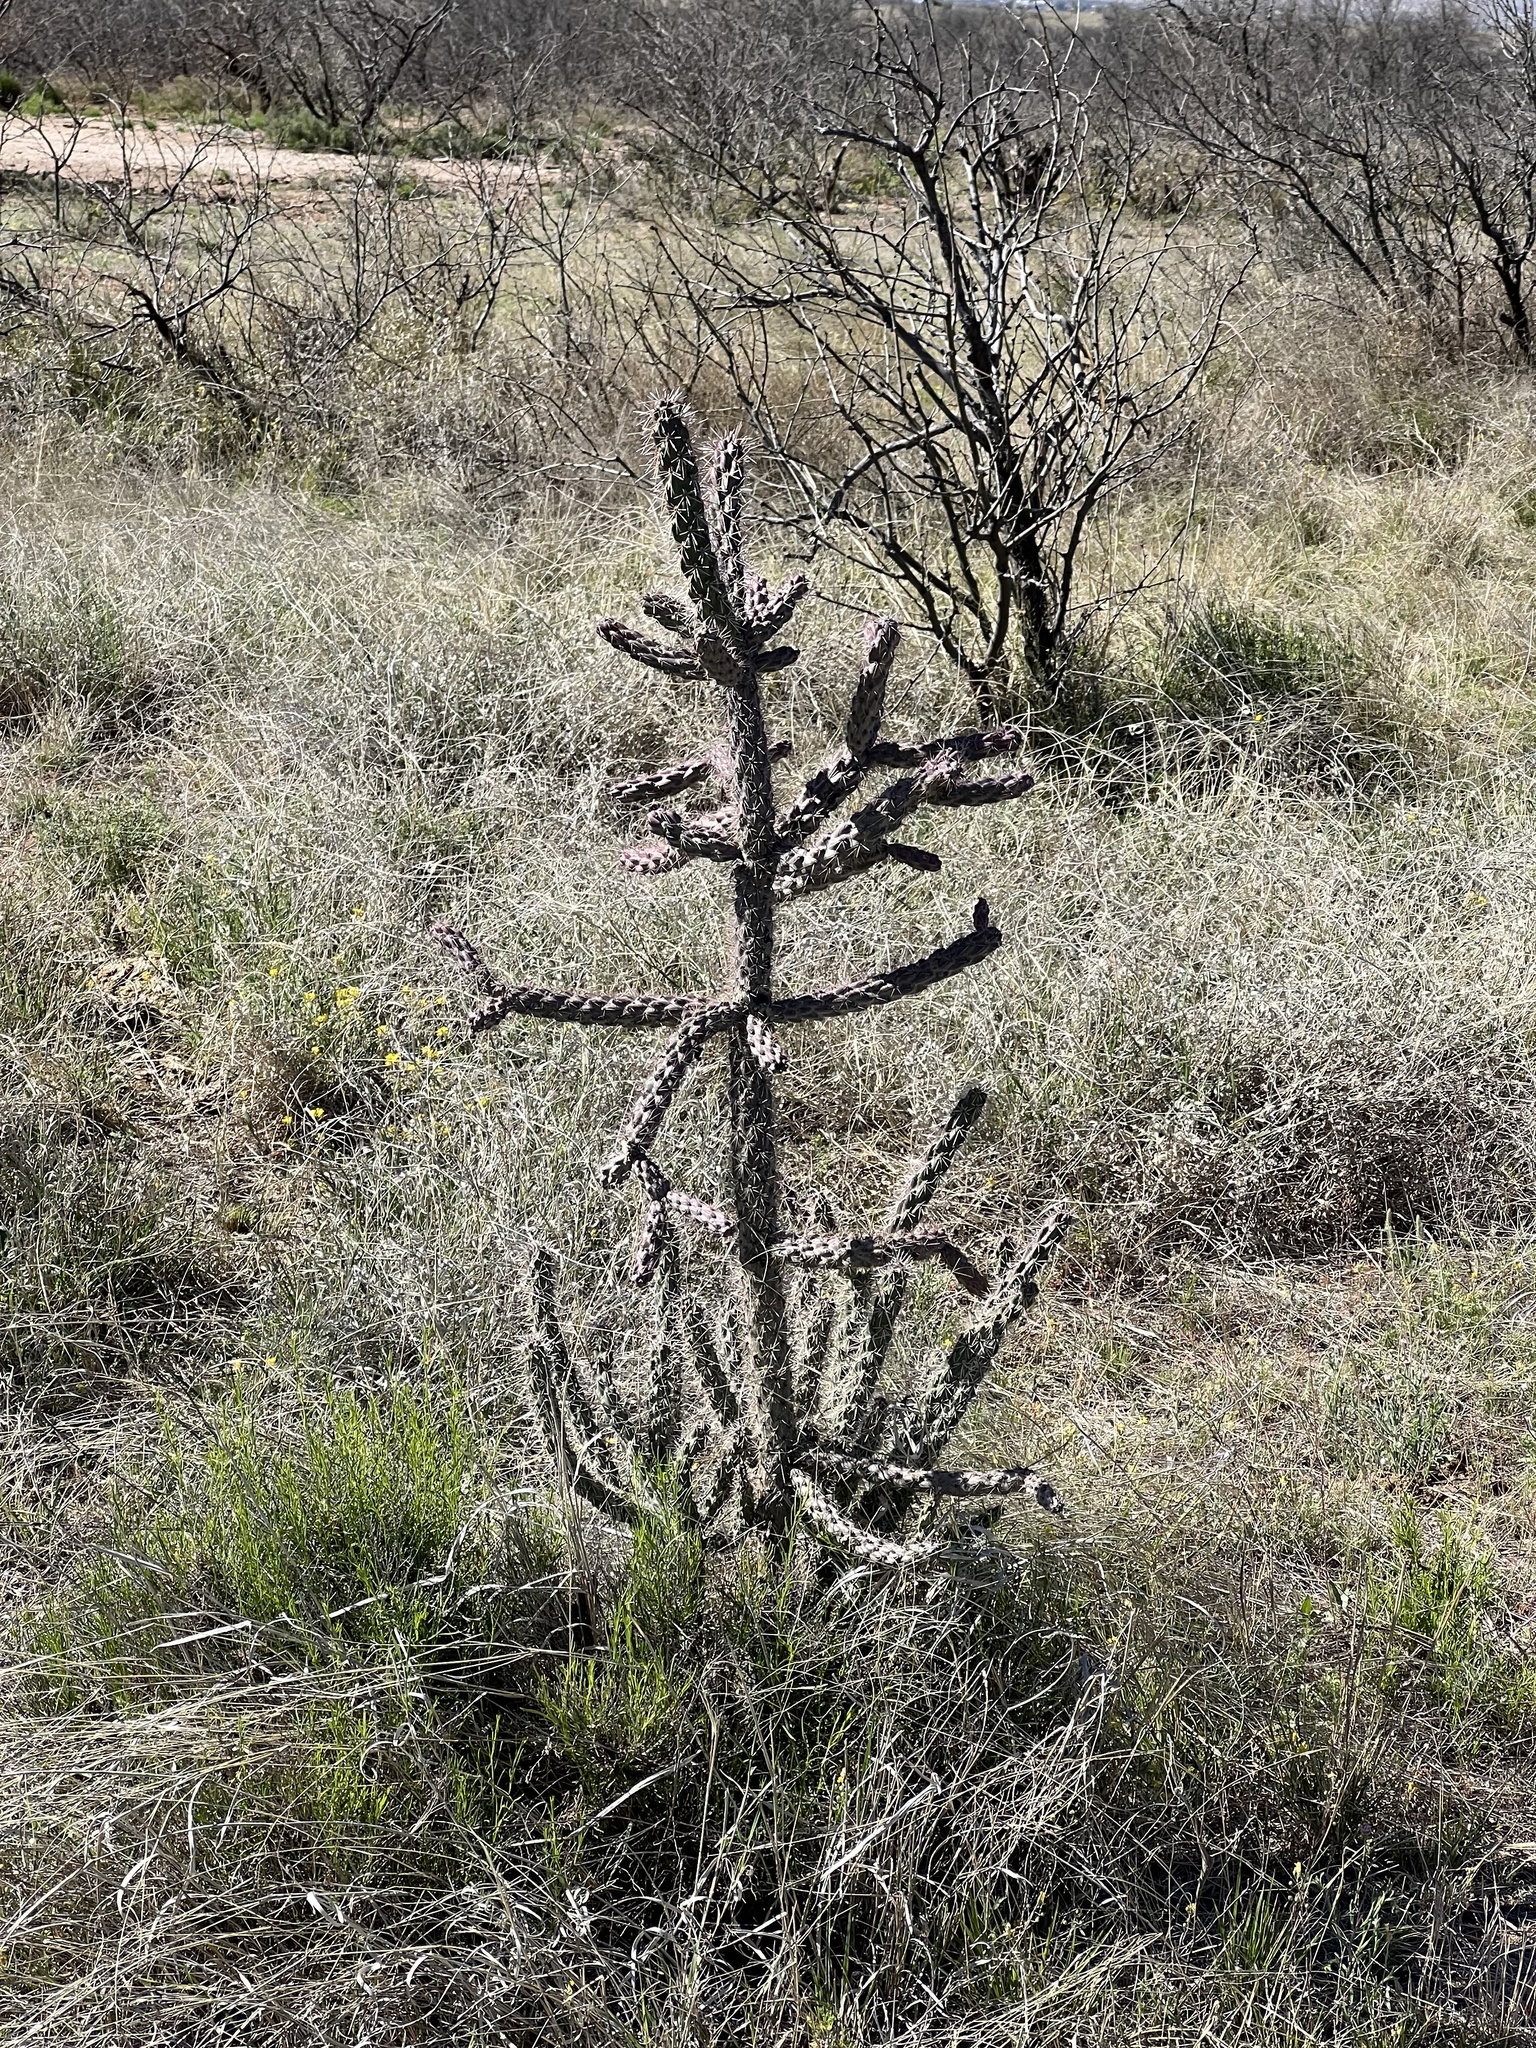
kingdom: Plantae
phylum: Tracheophyta
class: Magnoliopsida
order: Caryophyllales
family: Cactaceae
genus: Cylindropuntia
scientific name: Cylindropuntia imbricata
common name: Candelabrum cactus
